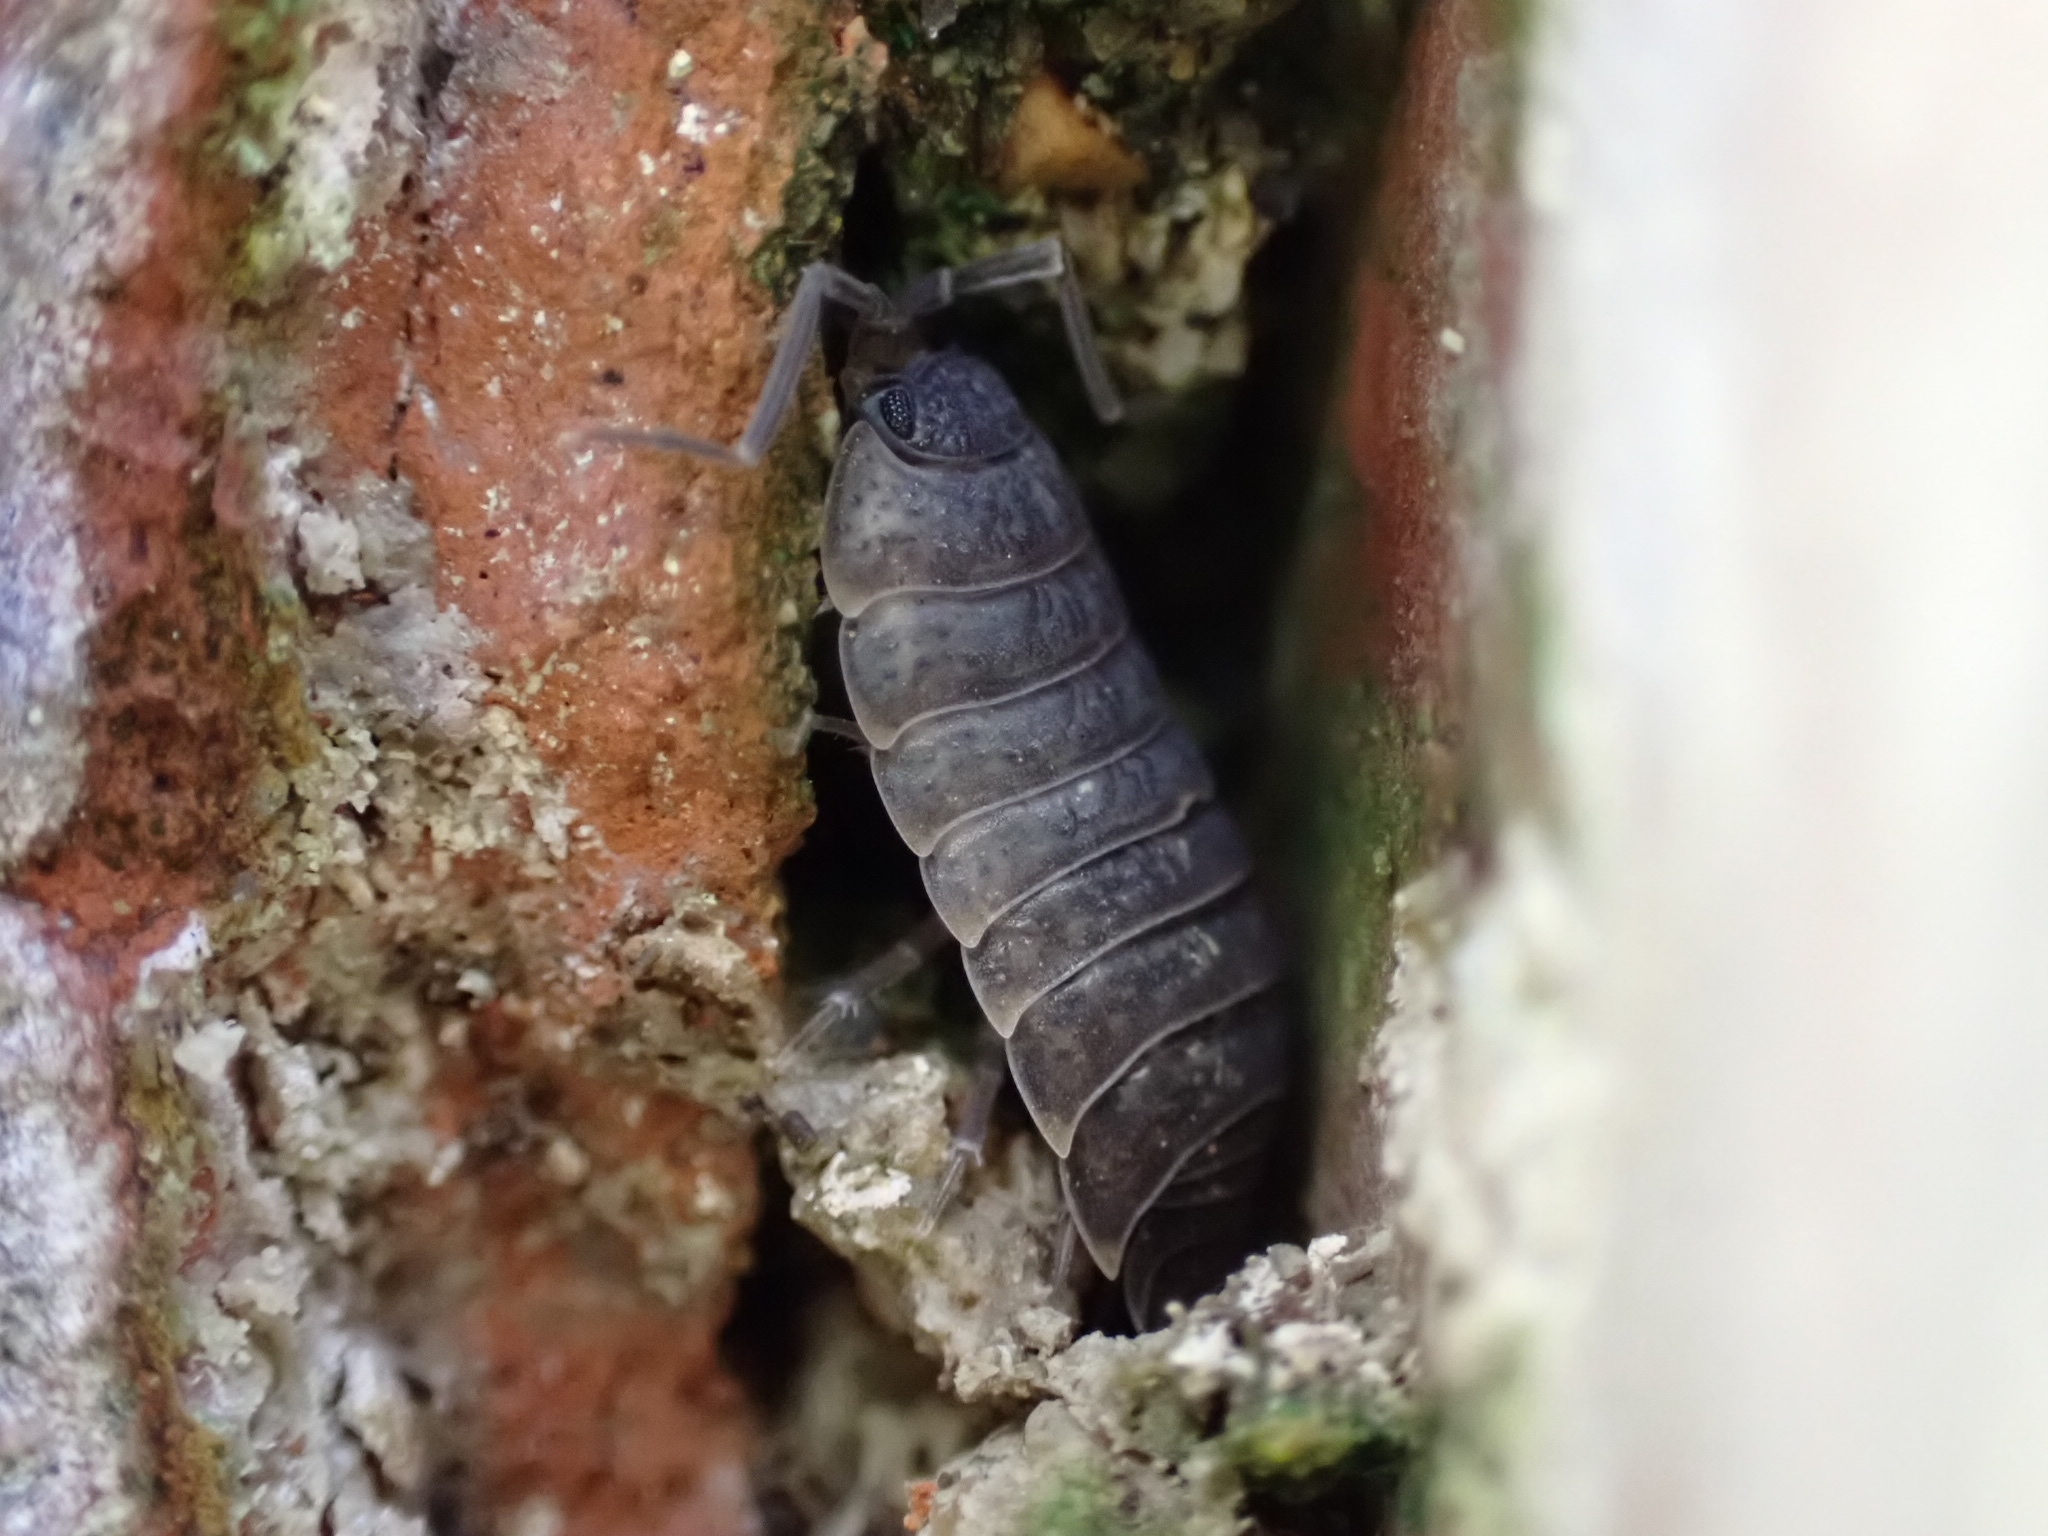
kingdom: Animalia
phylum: Arthropoda
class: Malacostraca
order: Isopoda
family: Porcellionidae
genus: Porcellio
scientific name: Porcellio monticola
